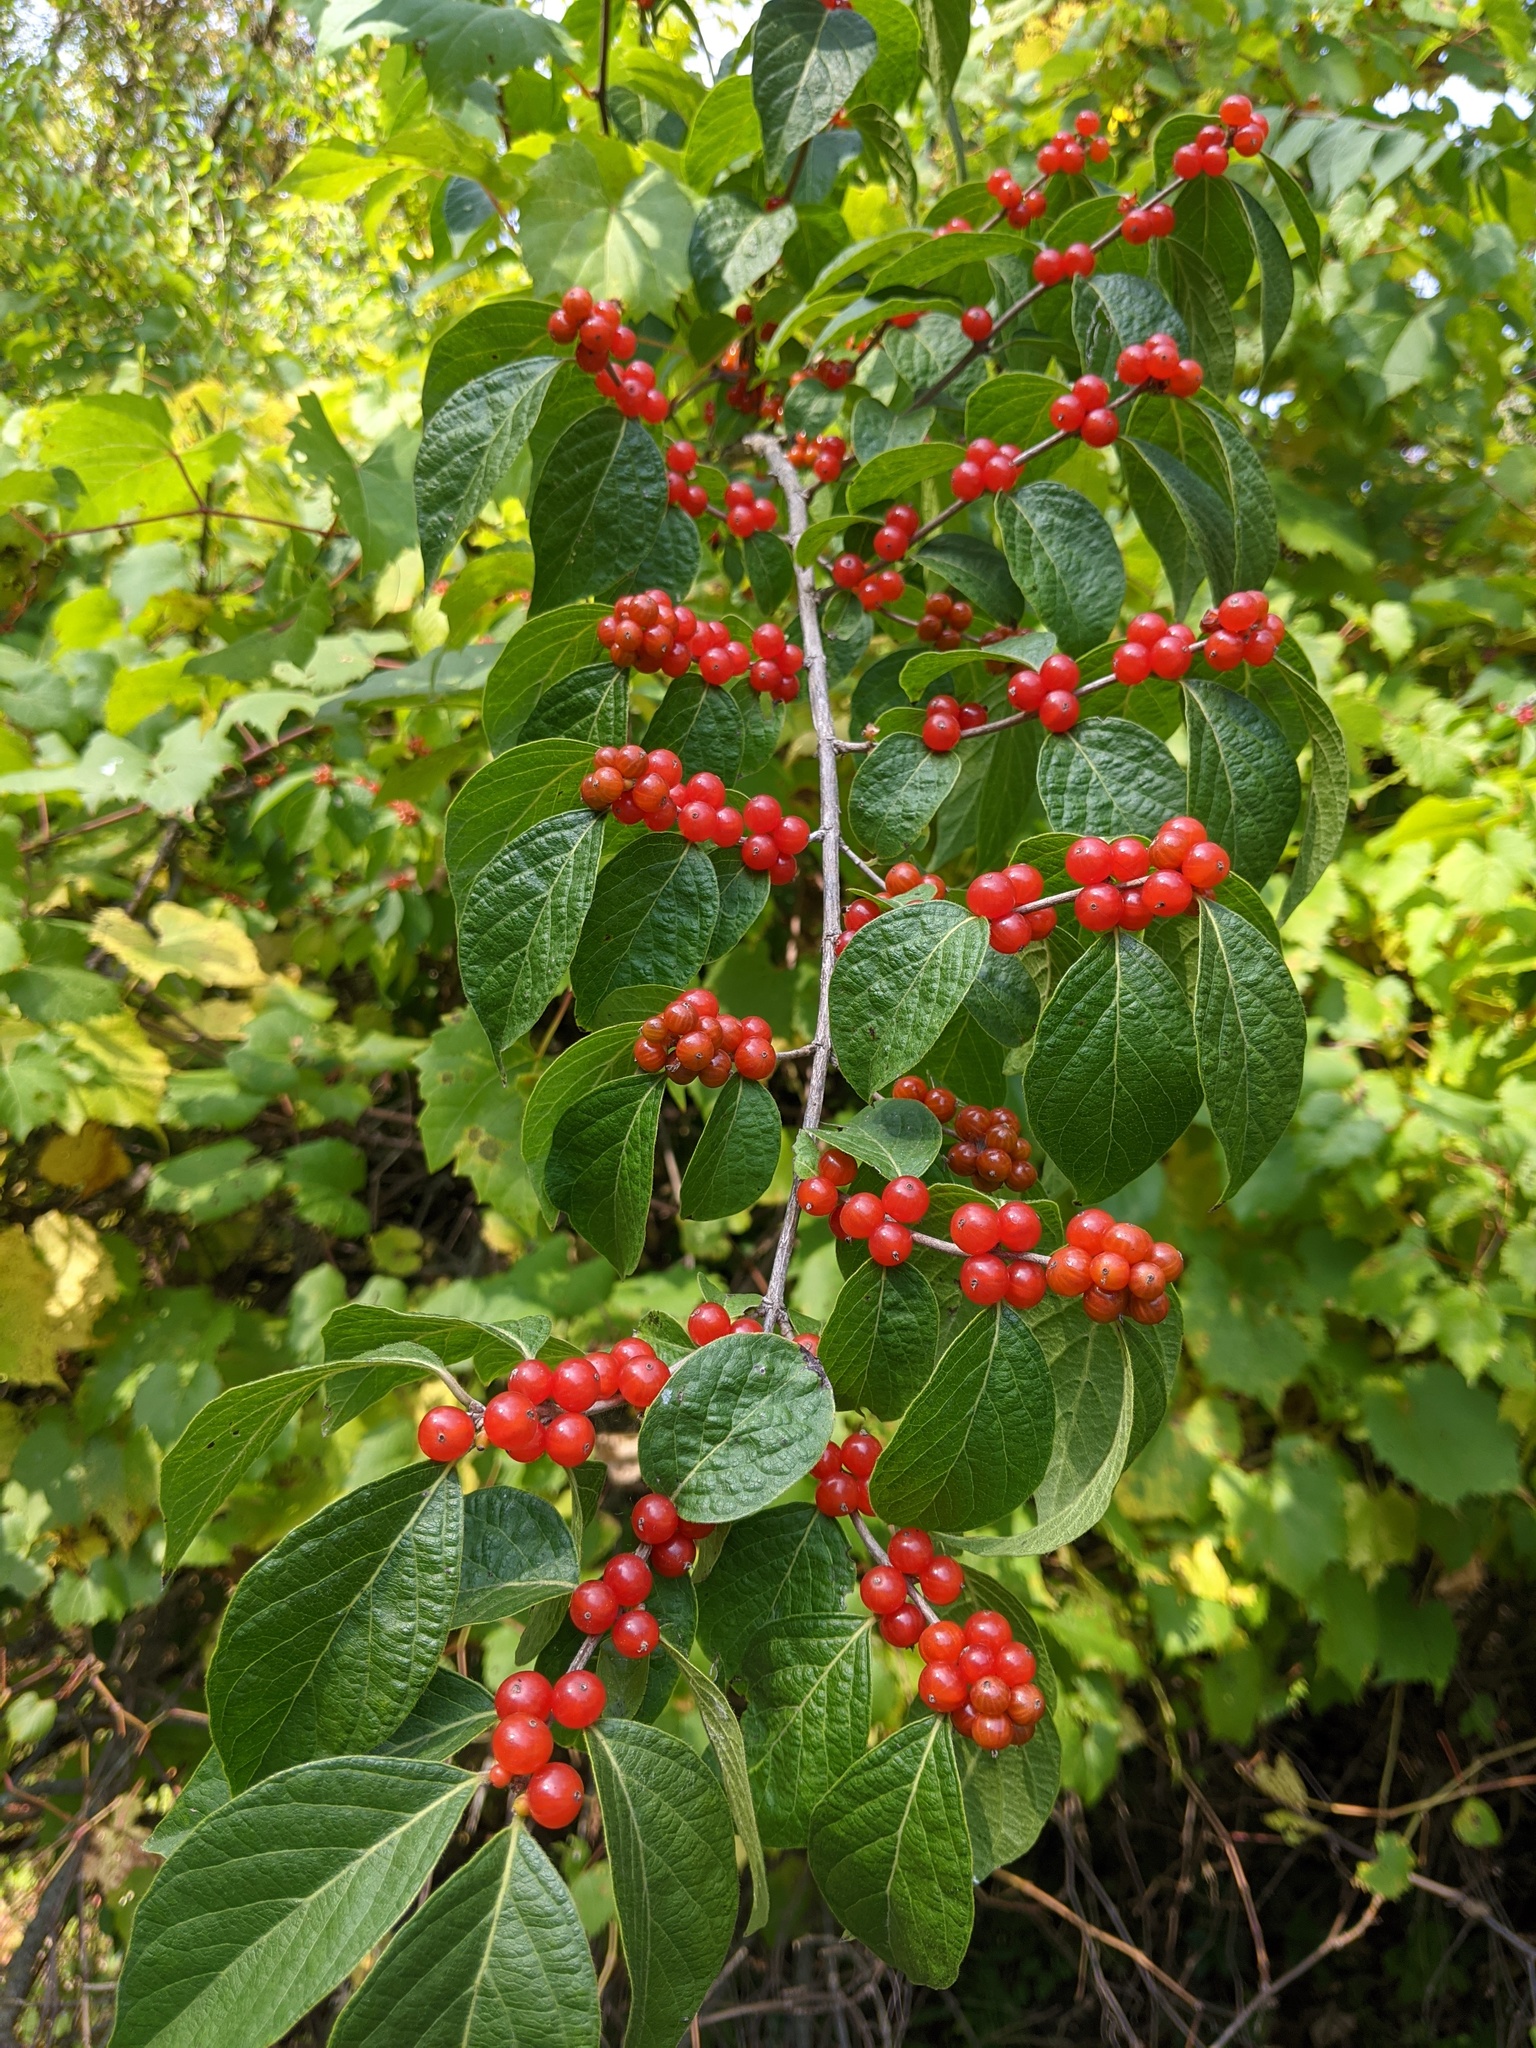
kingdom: Plantae
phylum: Tracheophyta
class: Magnoliopsida
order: Dipsacales
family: Caprifoliaceae
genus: Lonicera
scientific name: Lonicera maackii
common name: Amur honeysuckle
